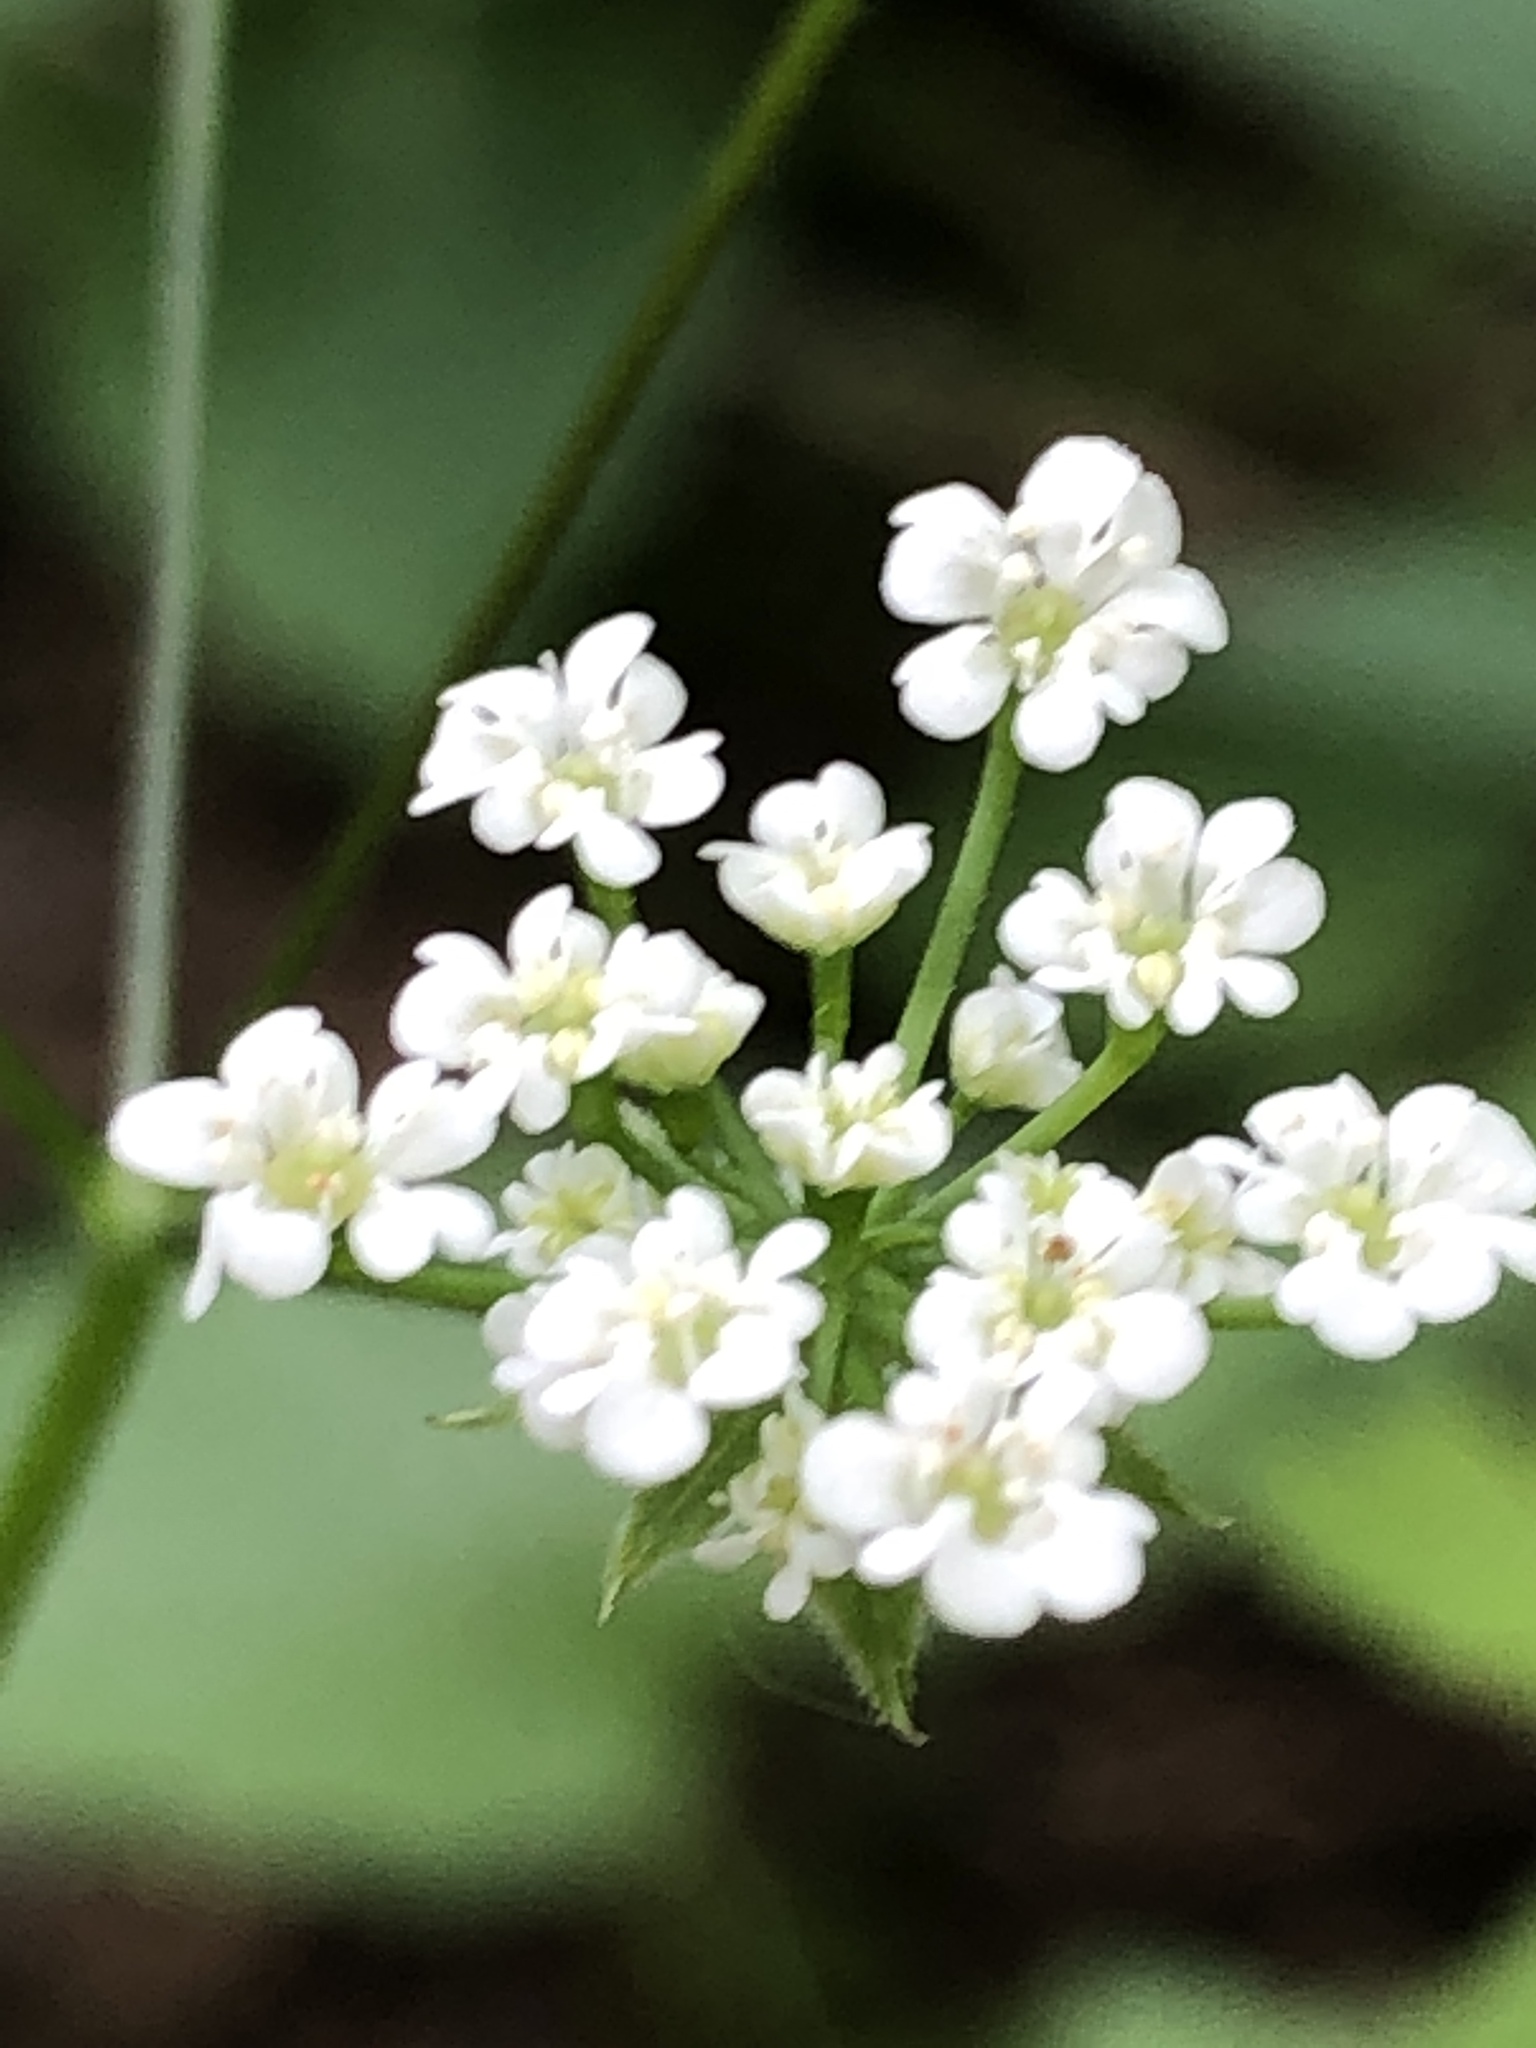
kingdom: Plantae
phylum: Tracheophyta
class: Magnoliopsida
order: Apiales
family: Apiaceae
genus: Chaerophyllum
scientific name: Chaerophyllum temulum
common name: Rough chervil
